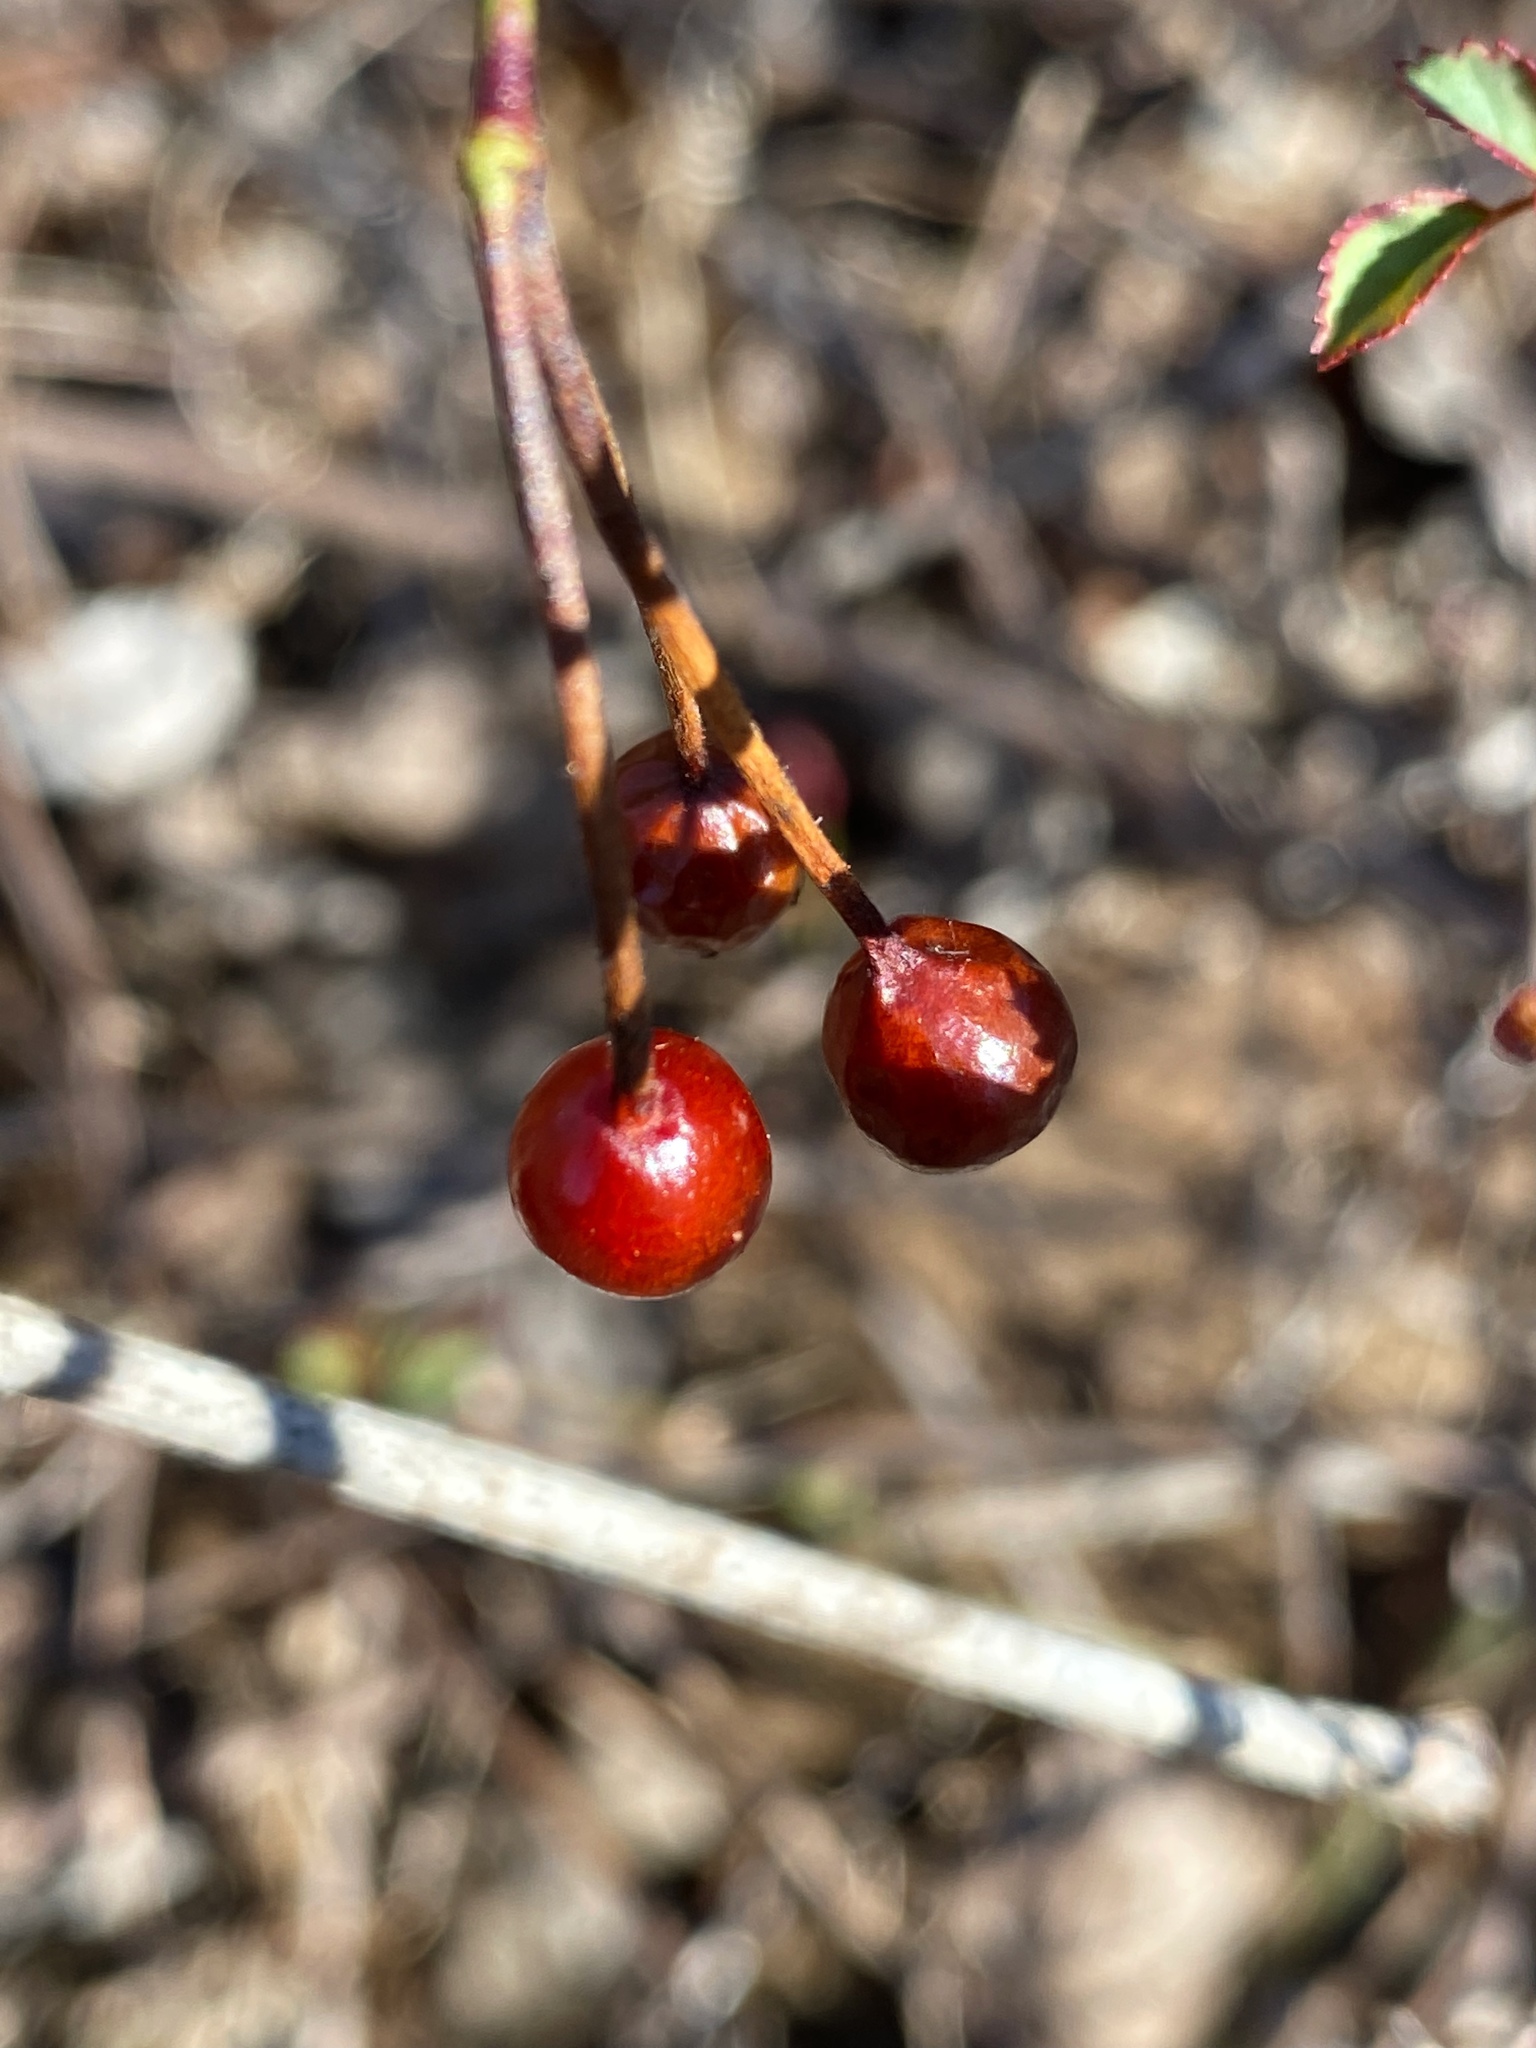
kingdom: Plantae
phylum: Tracheophyta
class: Magnoliopsida
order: Rosales
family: Rosaceae
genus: Rosa
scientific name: Rosa multiflora
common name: Multiflora rose
